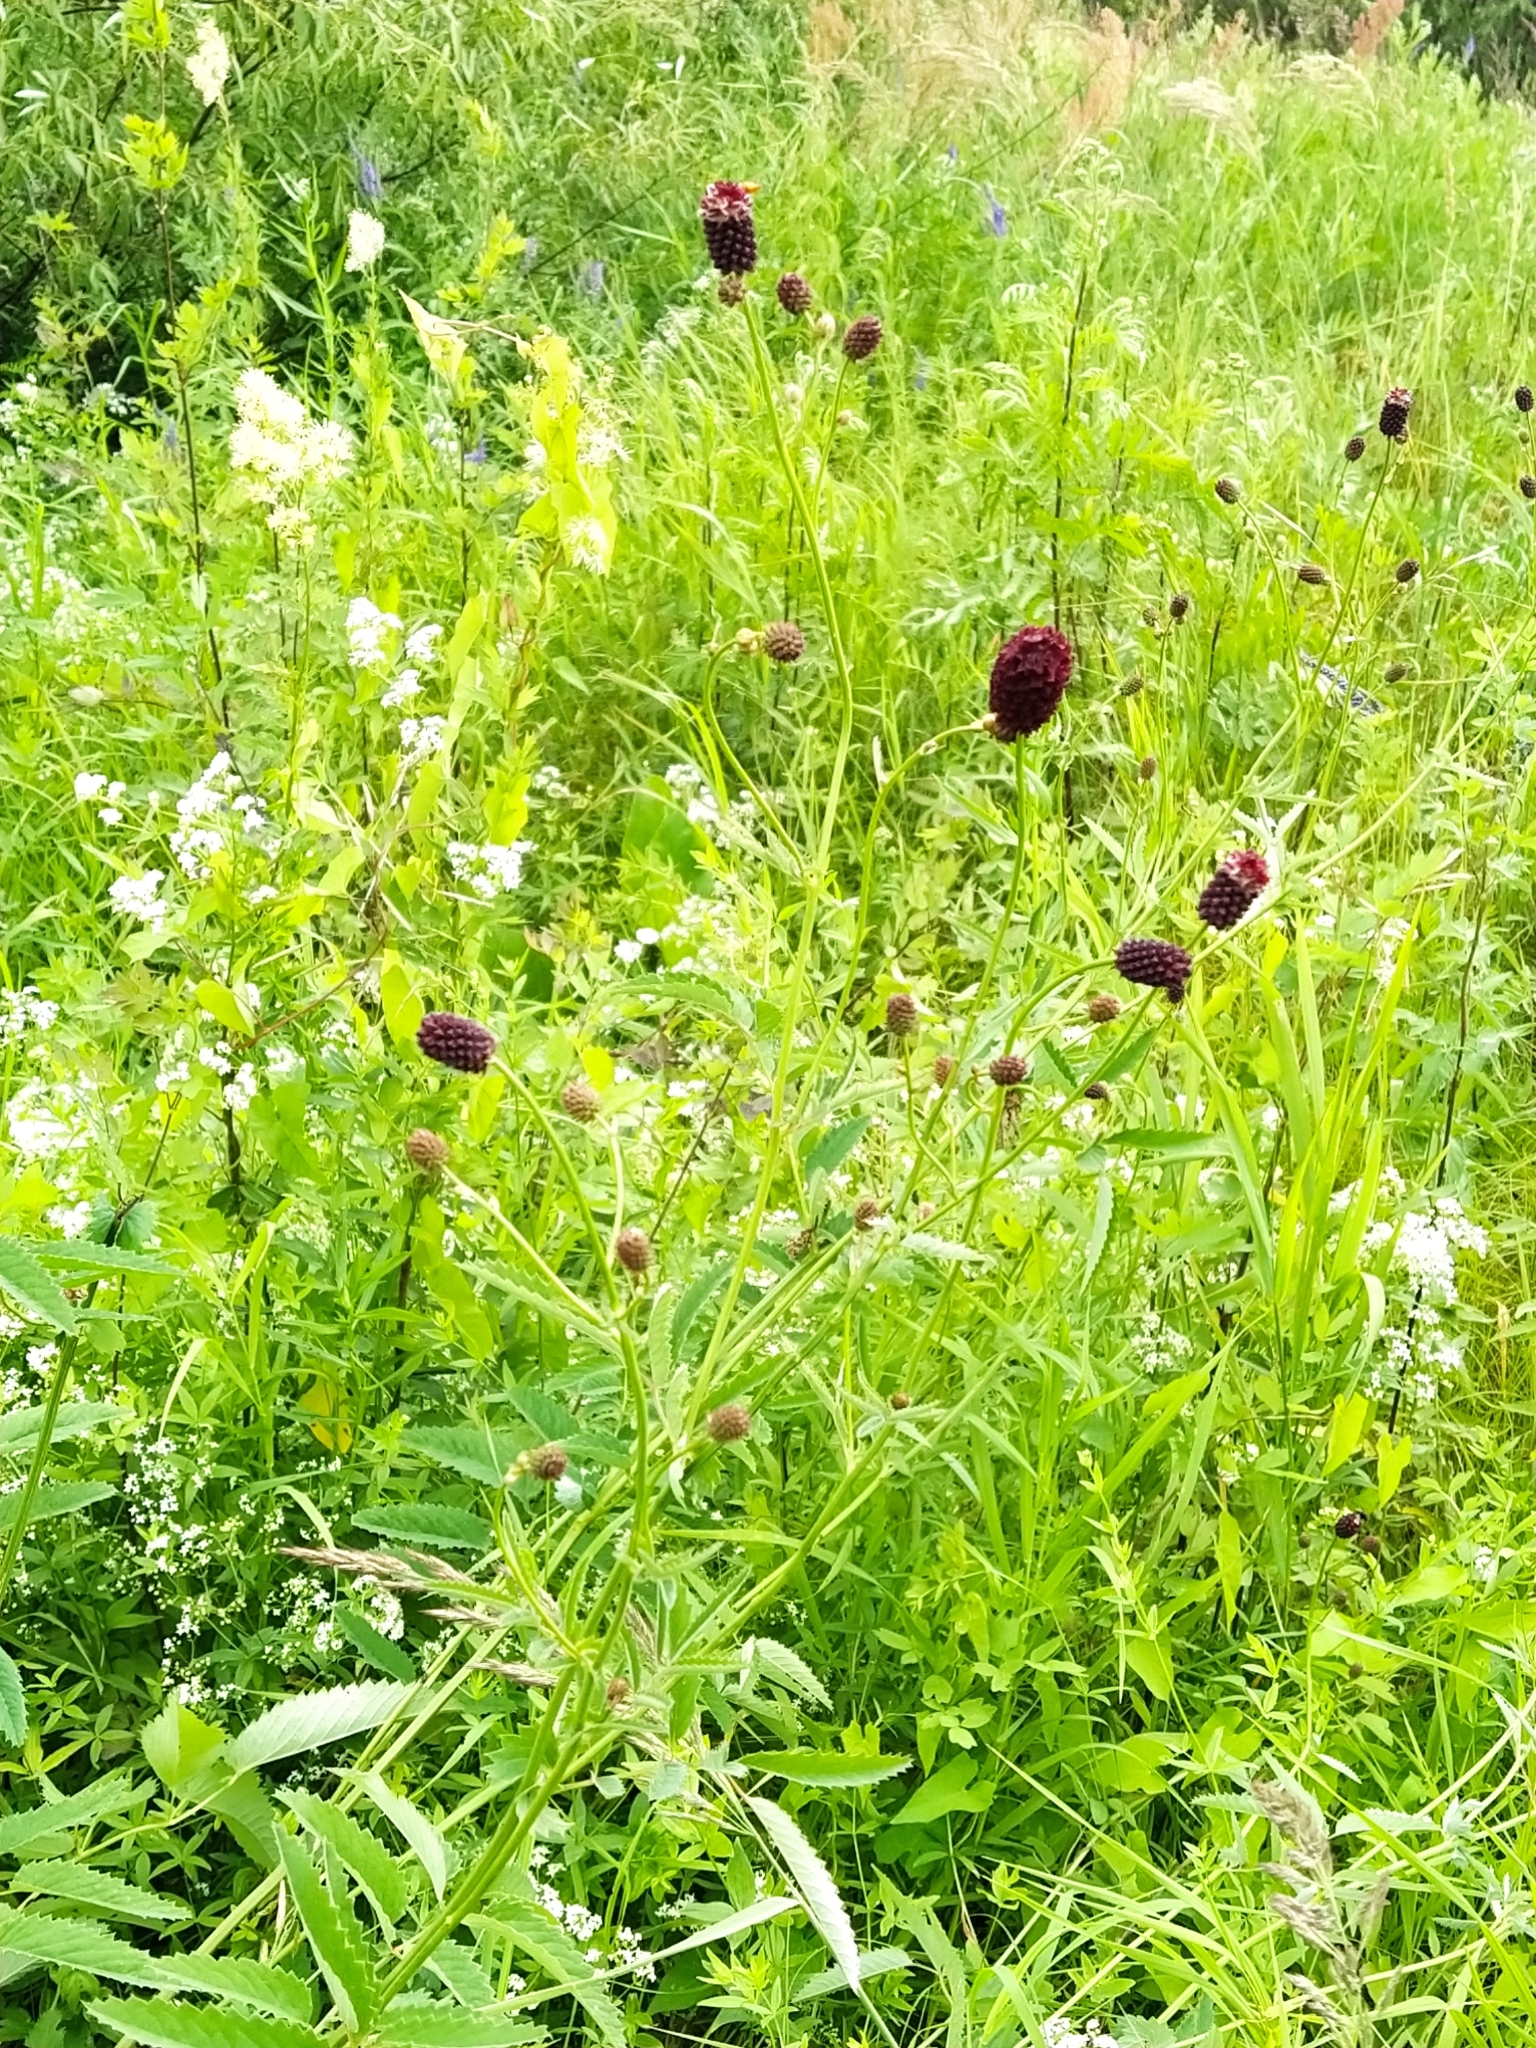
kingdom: Plantae
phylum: Tracheophyta
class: Magnoliopsida
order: Rosales
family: Rosaceae
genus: Sanguisorba
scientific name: Sanguisorba officinalis
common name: Great burnet
